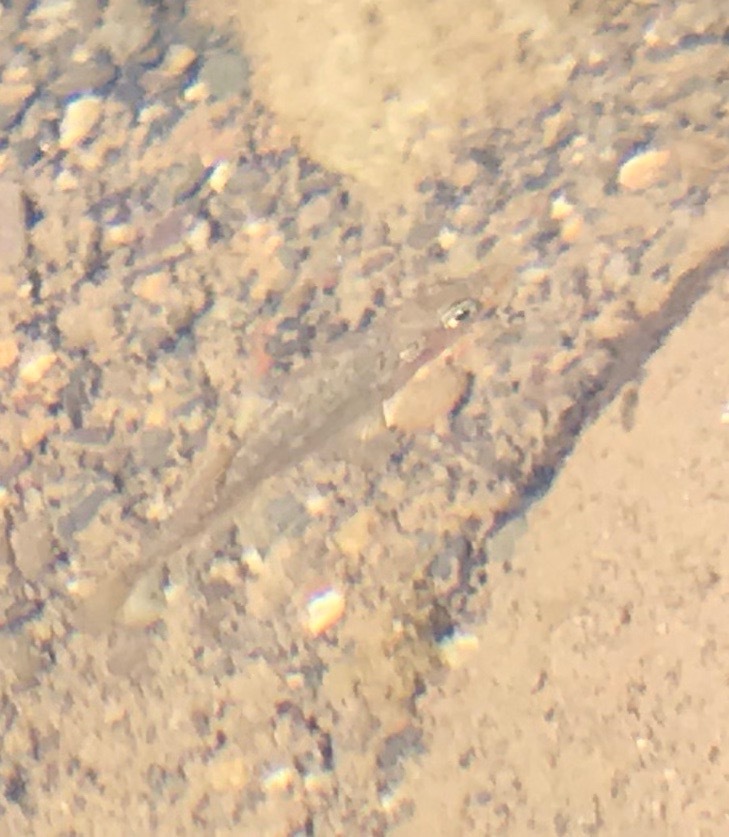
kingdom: Animalia
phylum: Chordata
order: Gasterosteiformes
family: Gasterosteidae
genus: Gasterosteus
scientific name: Gasterosteus aculeatus
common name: Three-spined stickleback
